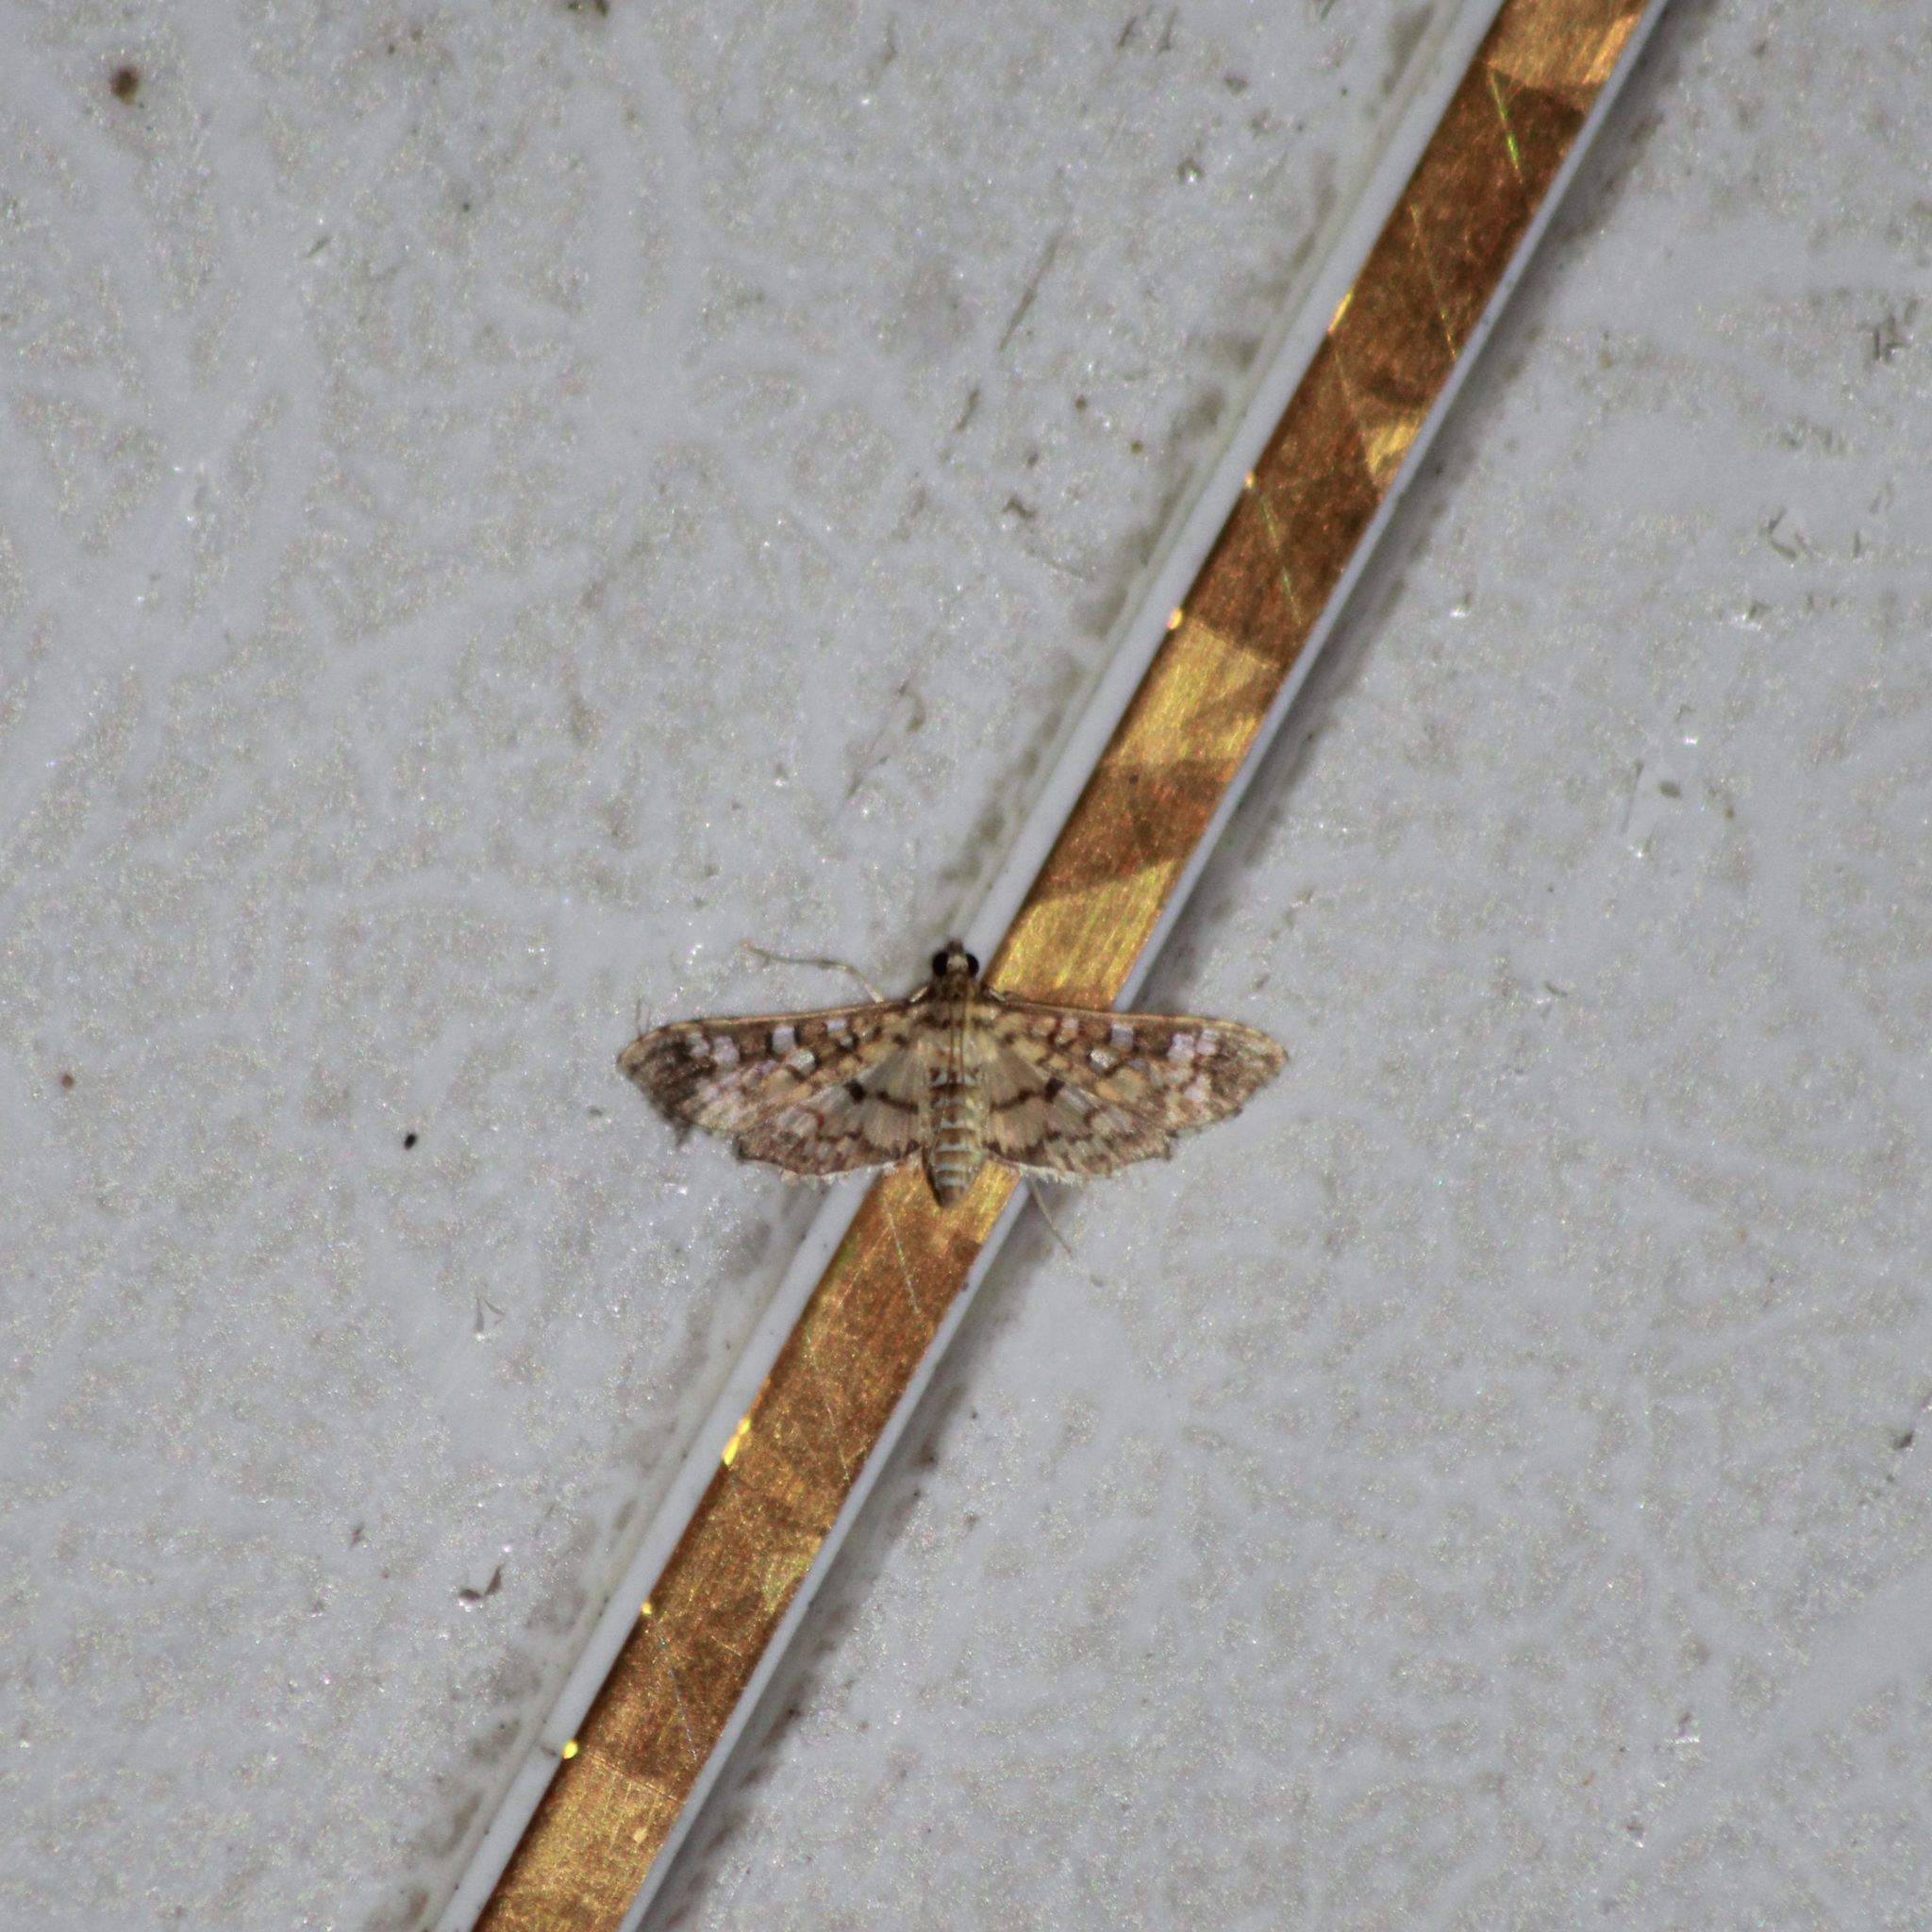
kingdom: Animalia
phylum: Arthropoda
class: Insecta
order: Lepidoptera
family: Crambidae
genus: Samea
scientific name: Samea ecclesialis
